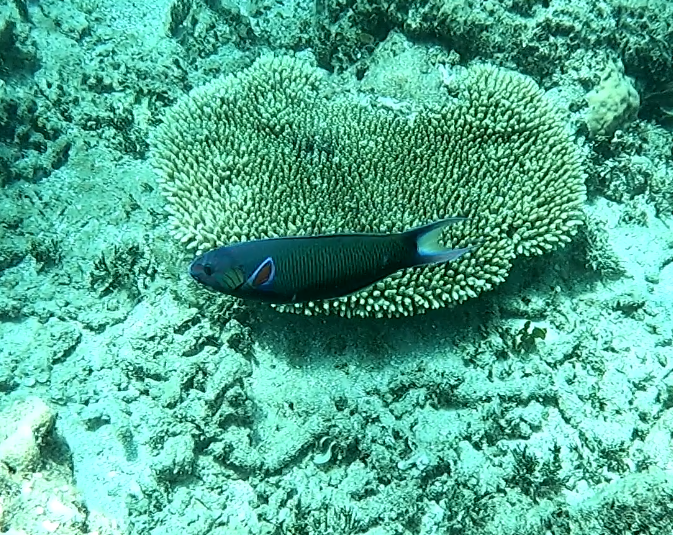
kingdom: Animalia
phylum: Chordata
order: Perciformes
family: Labridae
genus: Thalassoma
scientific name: Thalassoma lunare
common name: Blue wrasse
